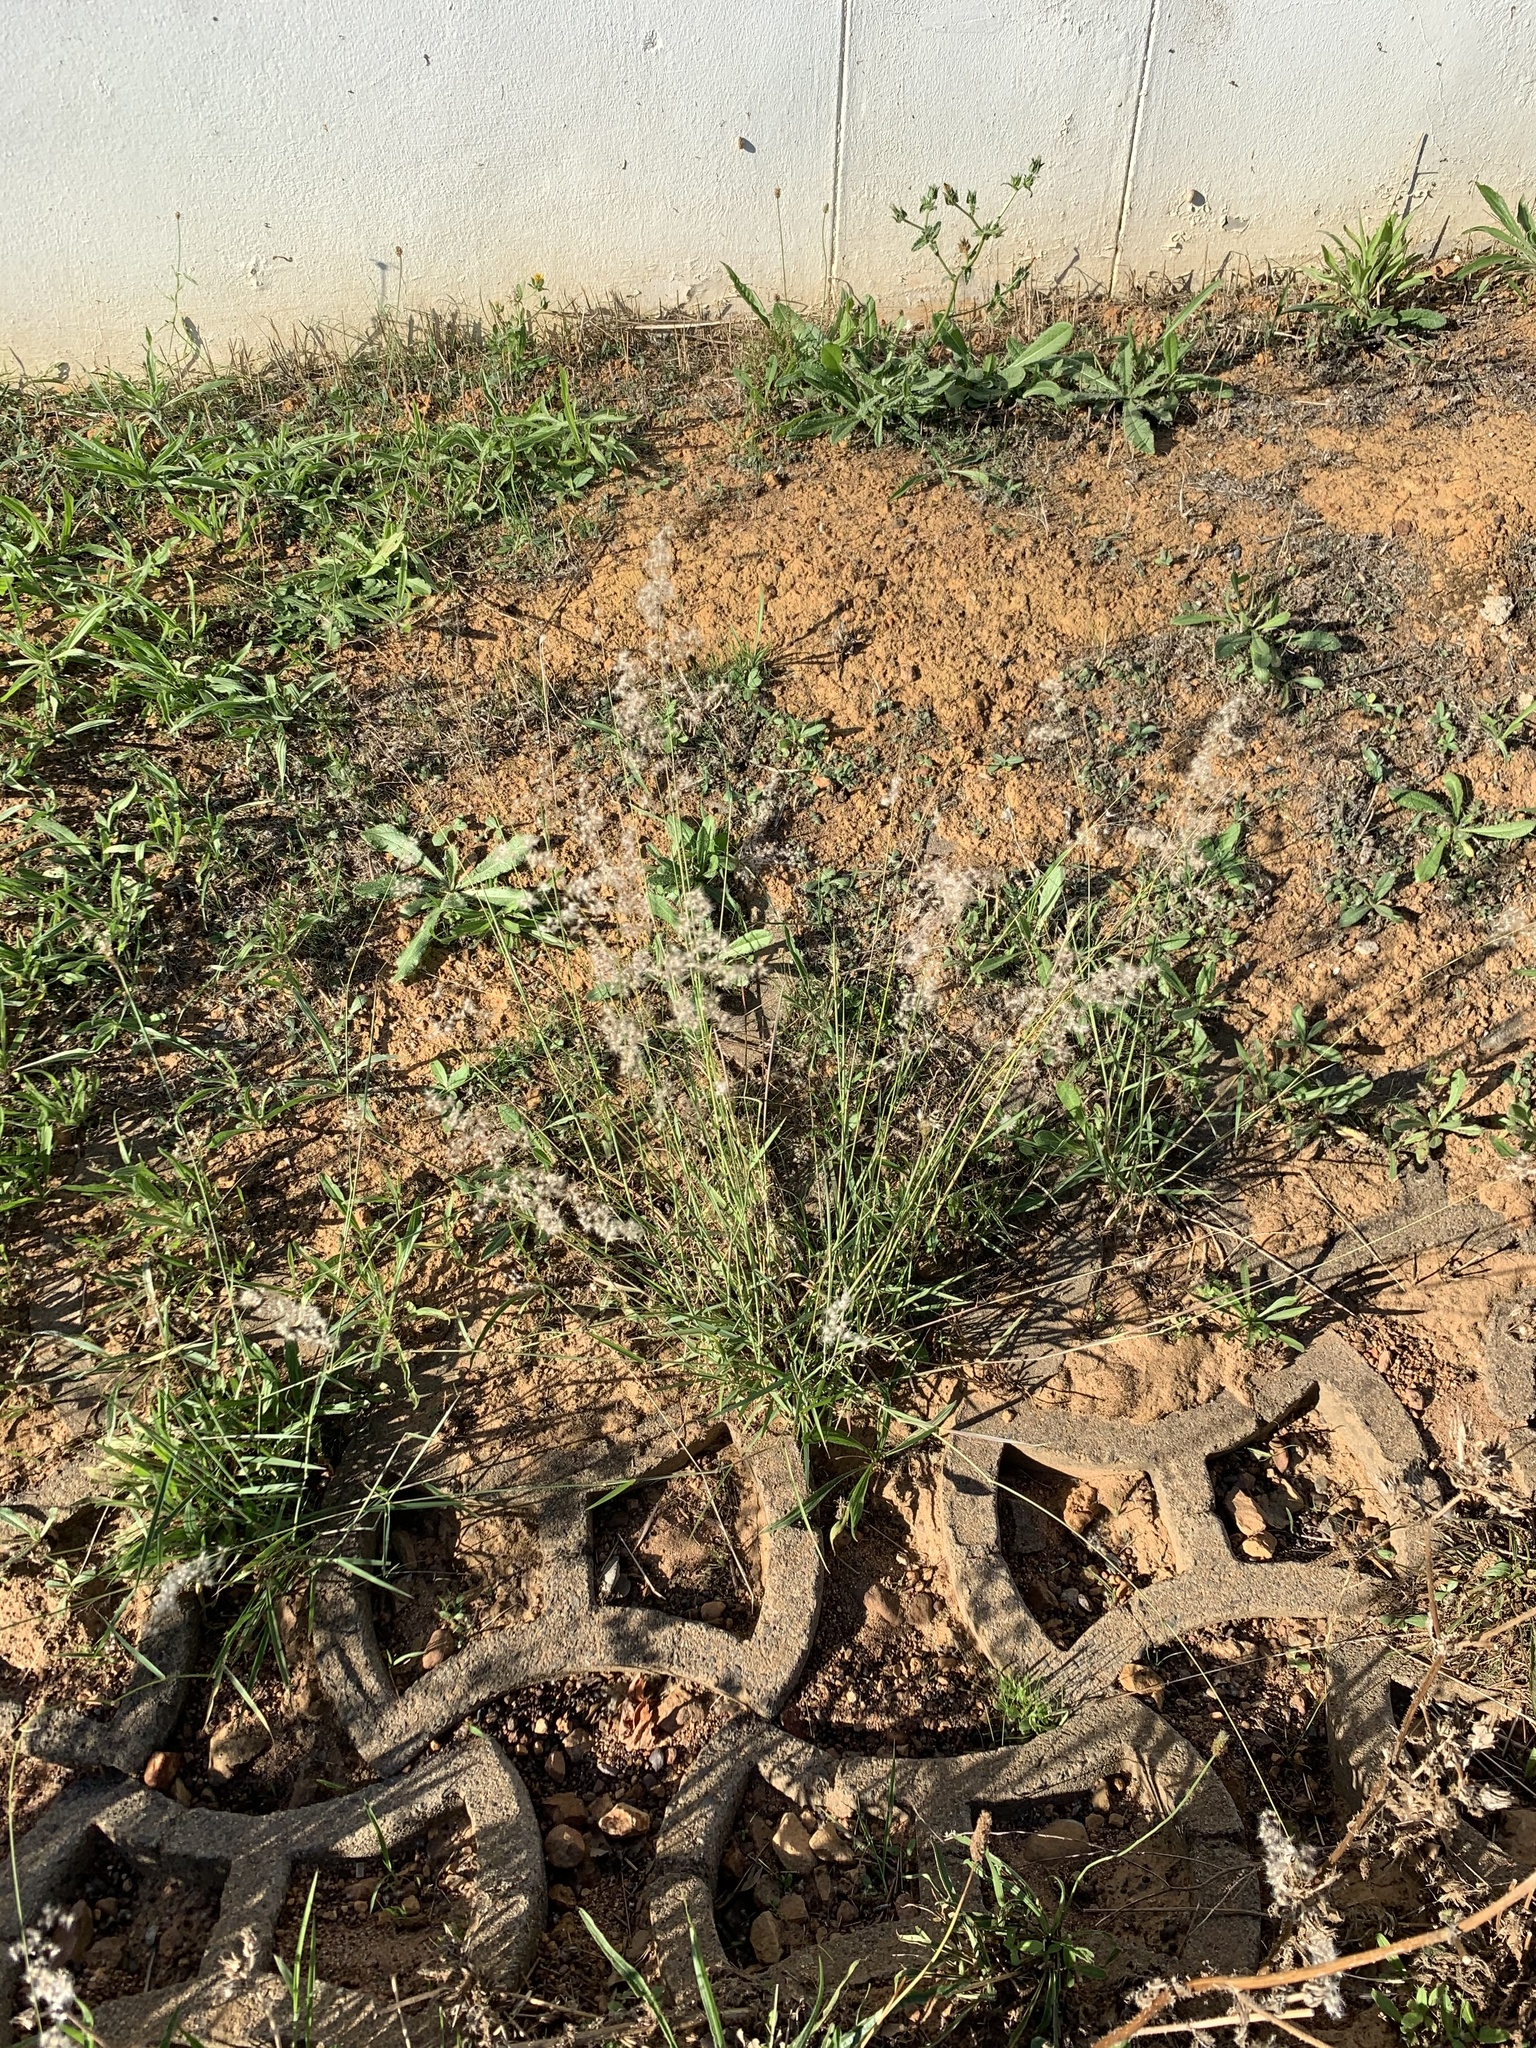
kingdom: Plantae
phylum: Tracheophyta
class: Liliopsida
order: Poales
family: Poaceae
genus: Melinis
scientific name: Melinis repens
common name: Rose natal grass
